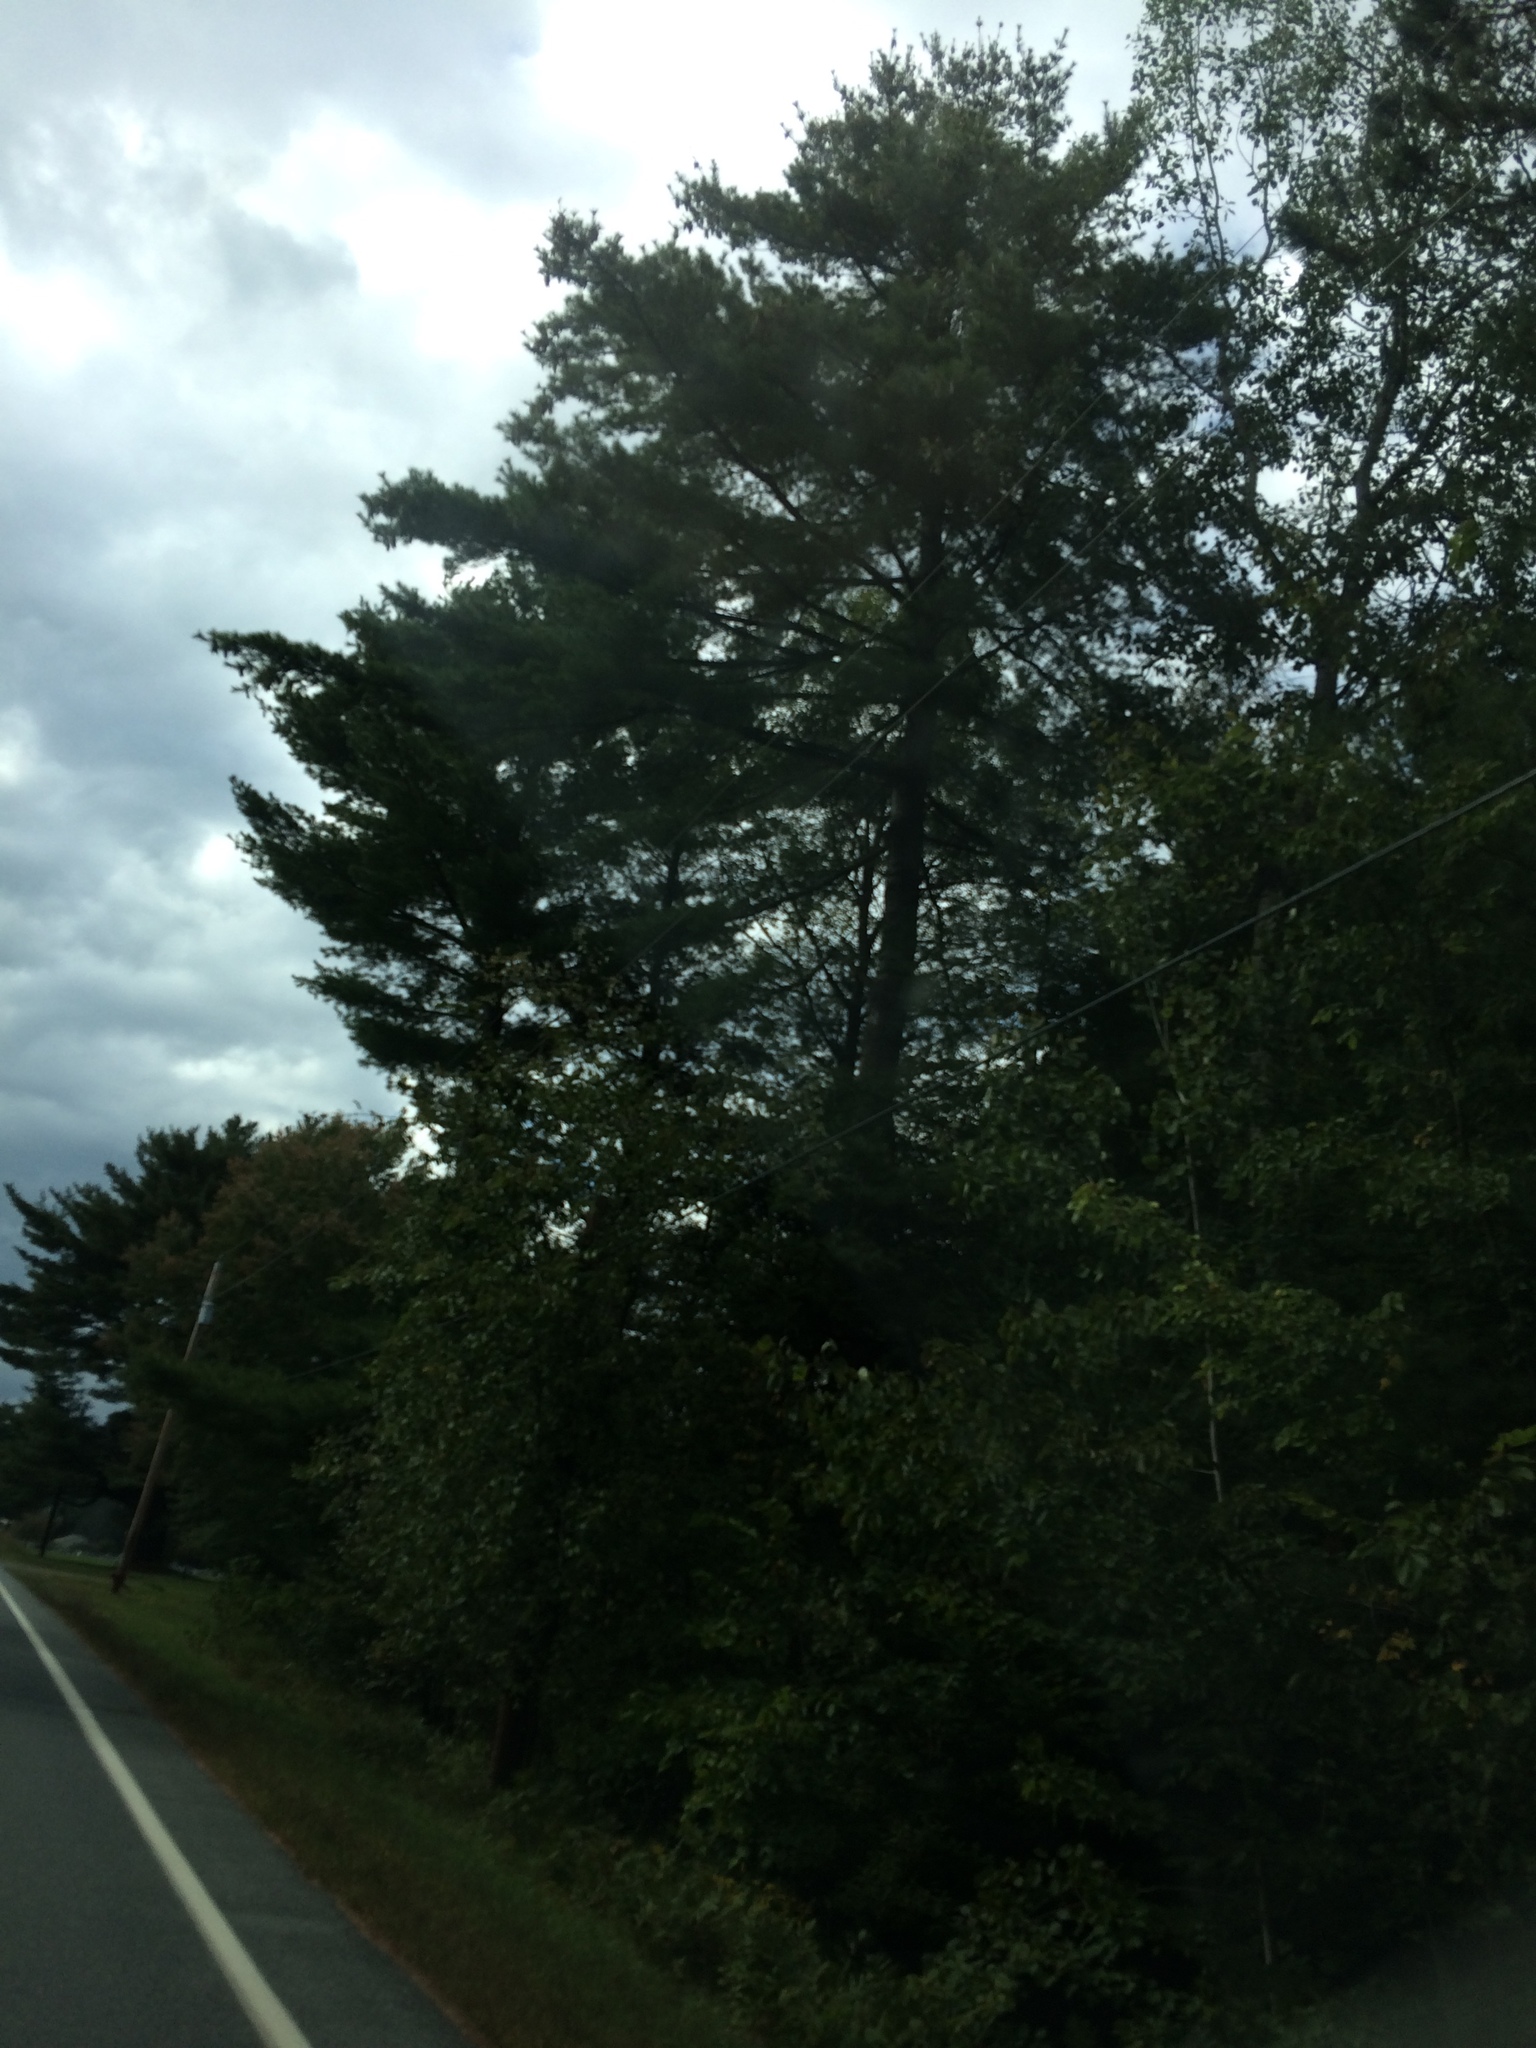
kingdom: Plantae
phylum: Tracheophyta
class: Pinopsida
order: Pinales
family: Pinaceae
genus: Pinus
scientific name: Pinus strobus
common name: Weymouth pine
